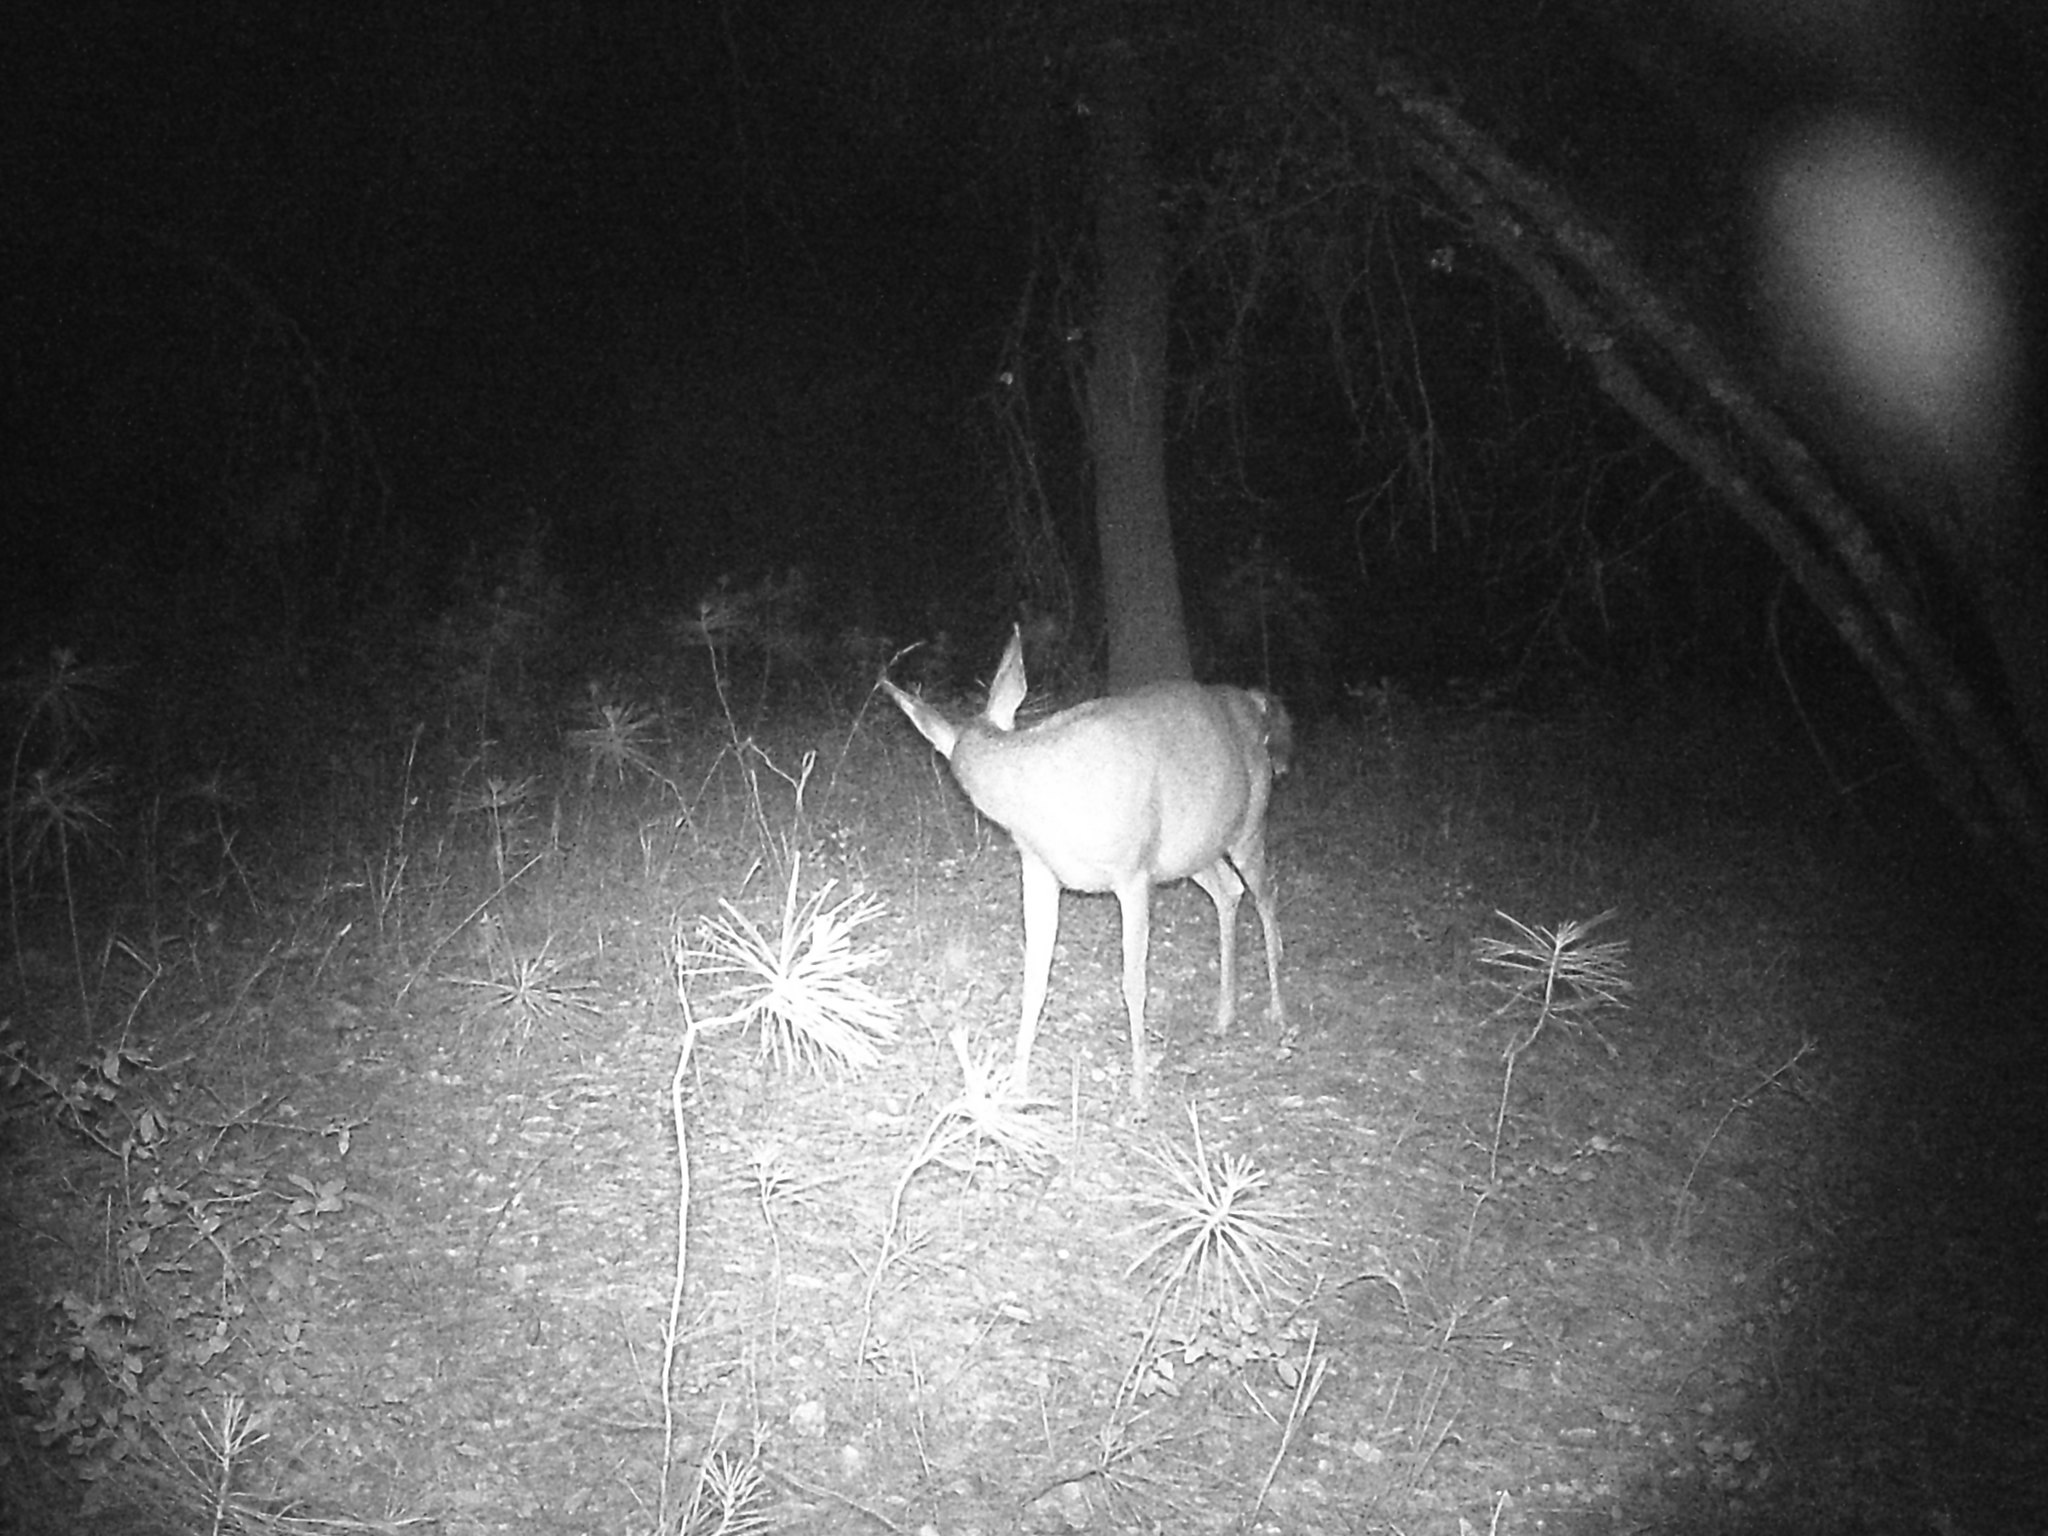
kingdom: Animalia
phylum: Chordata
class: Mammalia
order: Artiodactyla
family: Cervidae
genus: Odocoileus
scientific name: Odocoileus hemionus
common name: Mule deer
